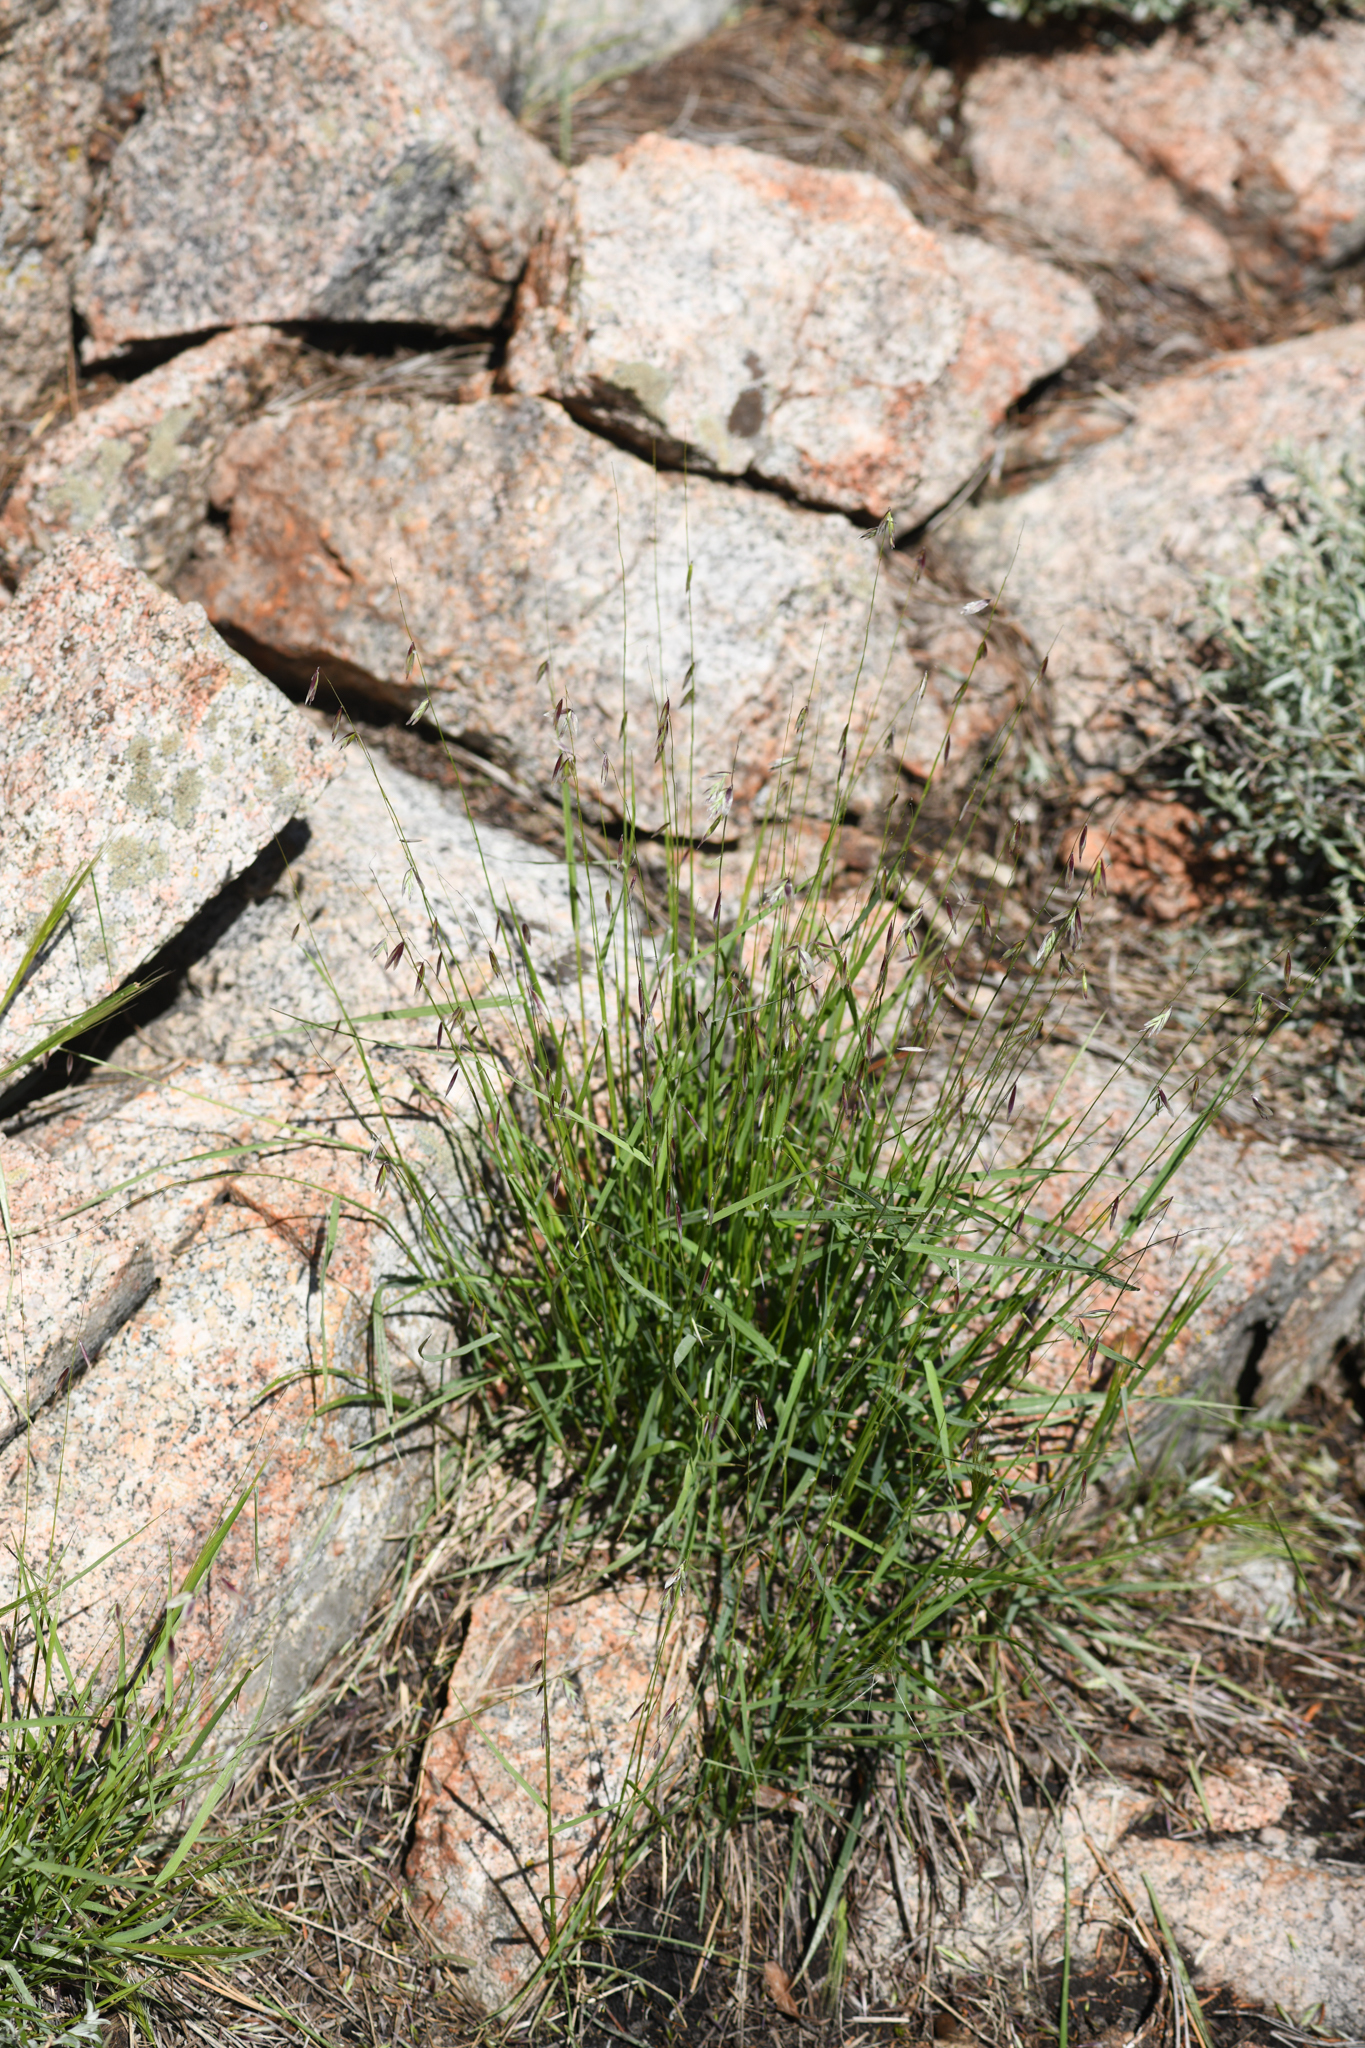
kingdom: Plantae
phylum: Tracheophyta
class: Liliopsida
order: Poales
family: Poaceae
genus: Melica
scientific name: Melica stricta
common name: Rock melic
